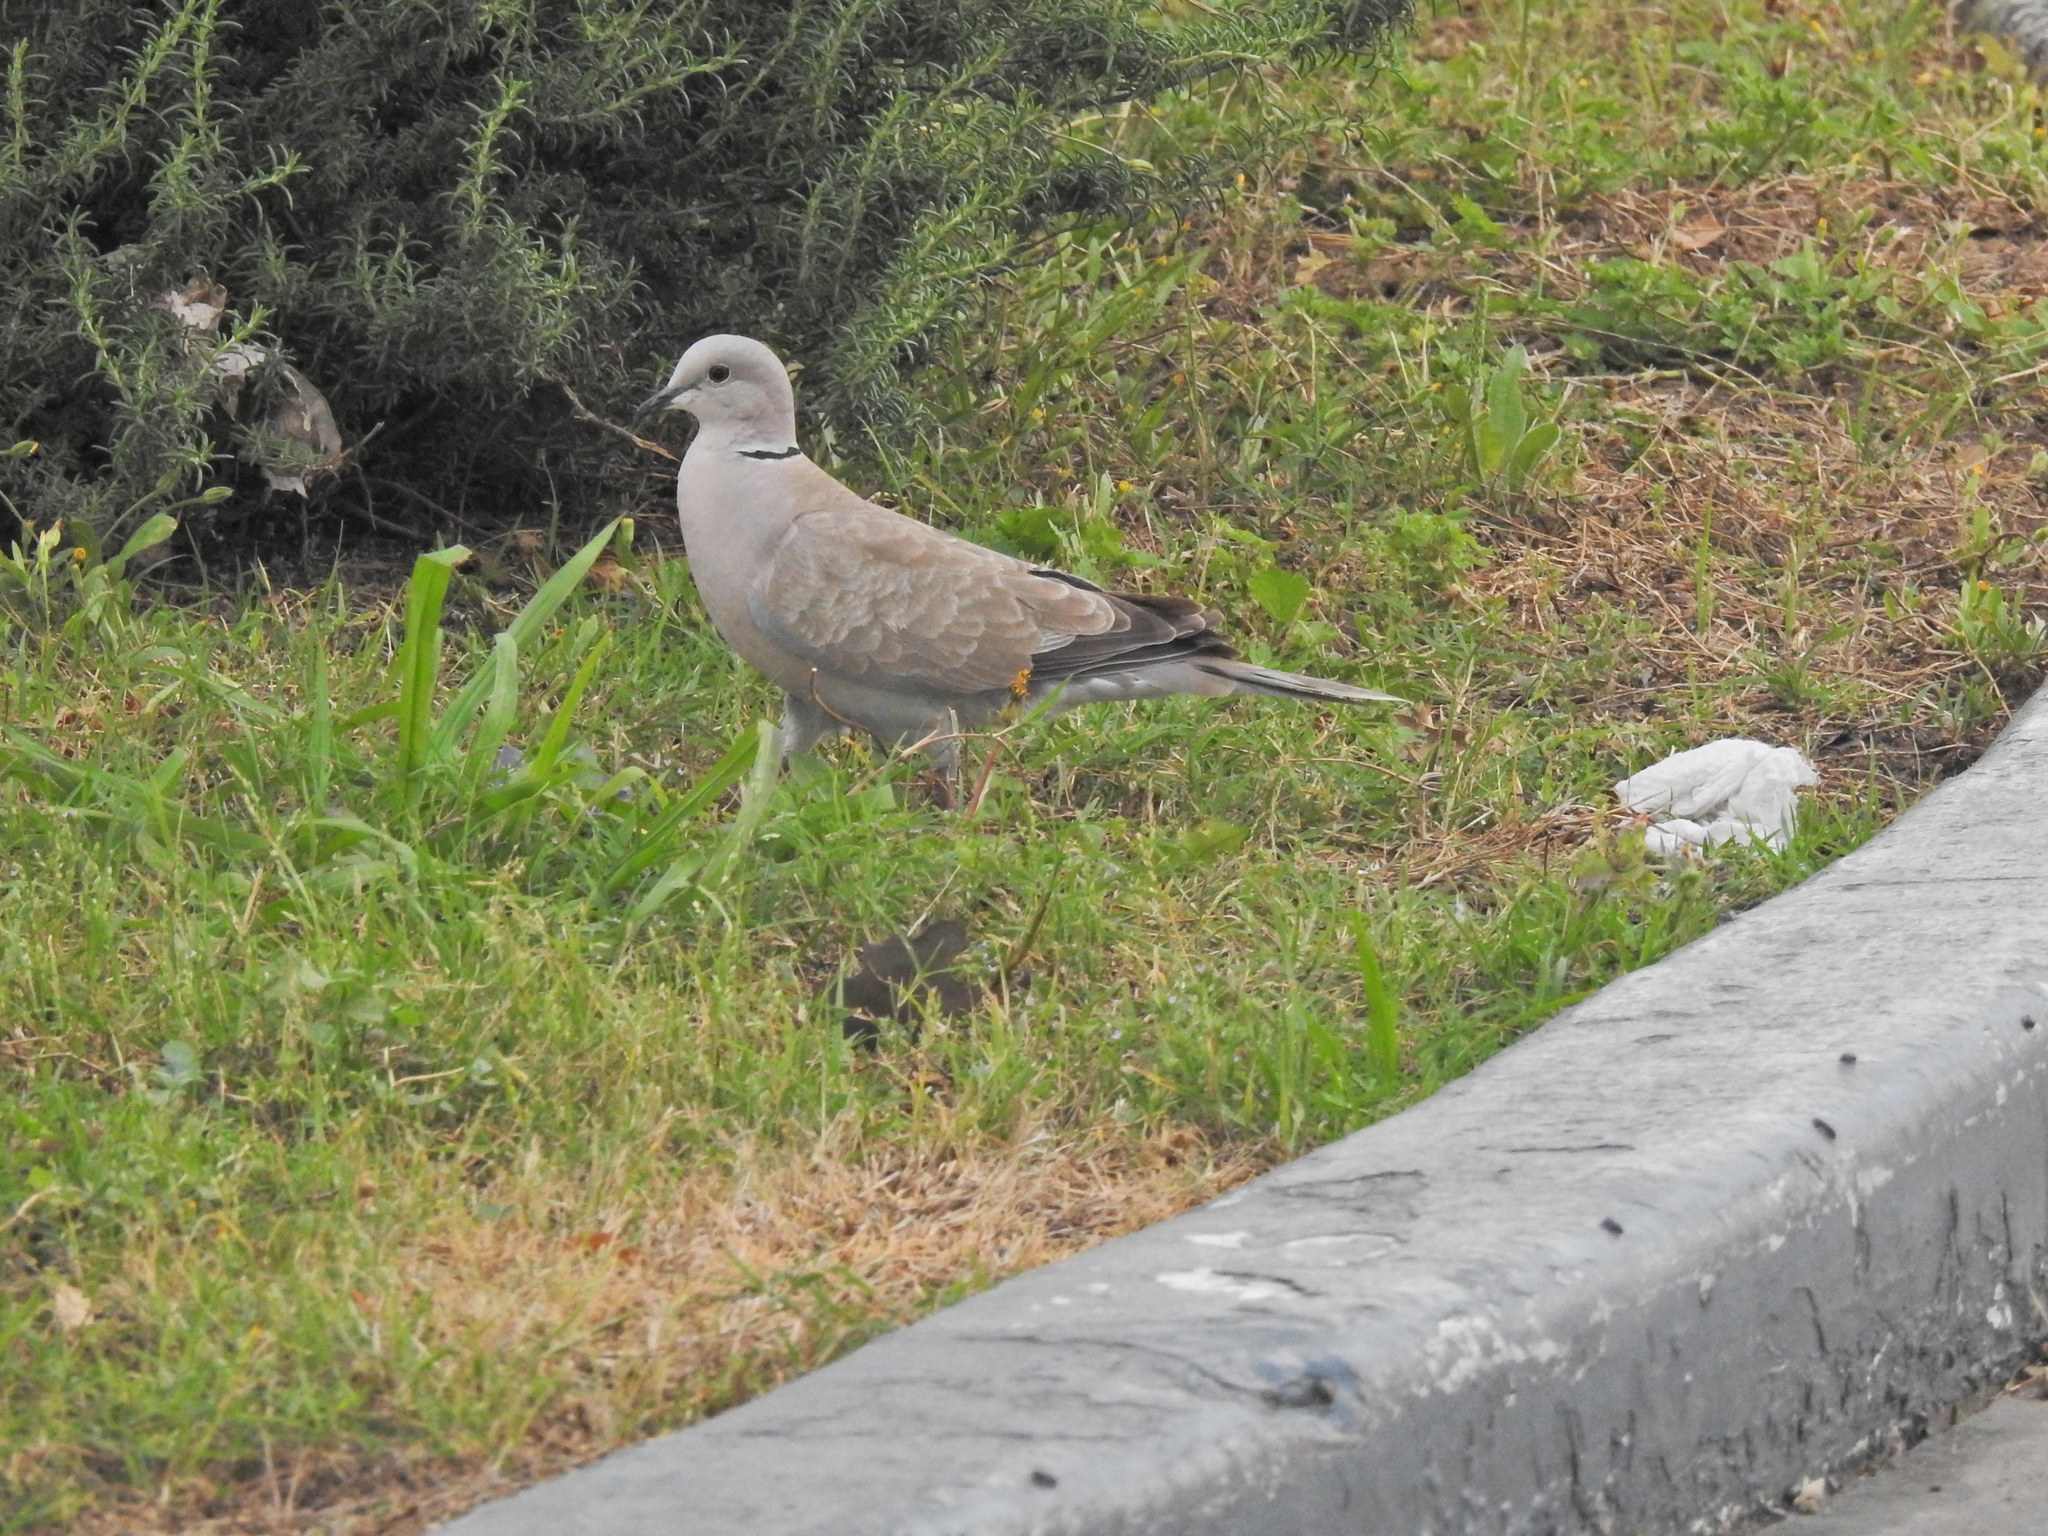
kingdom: Animalia
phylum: Chordata
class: Aves
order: Columbiformes
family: Columbidae
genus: Streptopelia
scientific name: Streptopelia decaocto
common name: Eurasian collared dove
